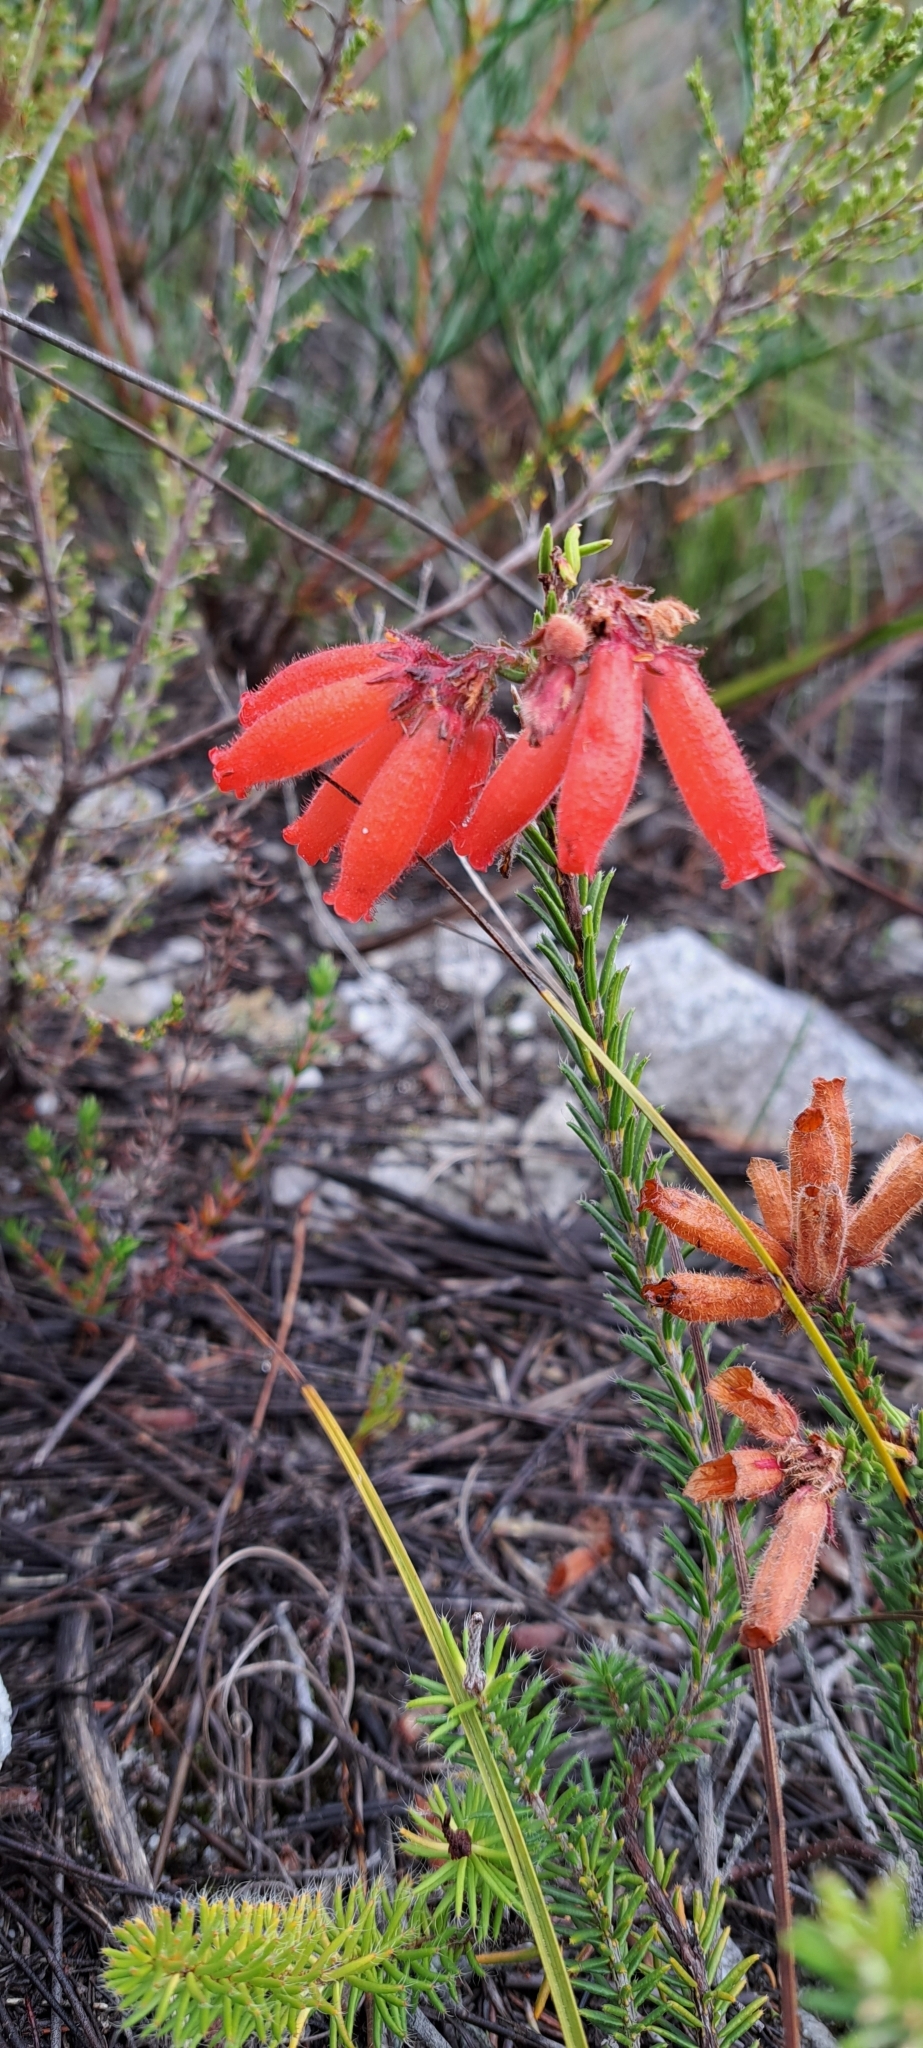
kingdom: Plantae
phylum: Tracheophyta
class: Magnoliopsida
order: Ericales
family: Ericaceae
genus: Erica
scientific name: Erica cerinthoides
